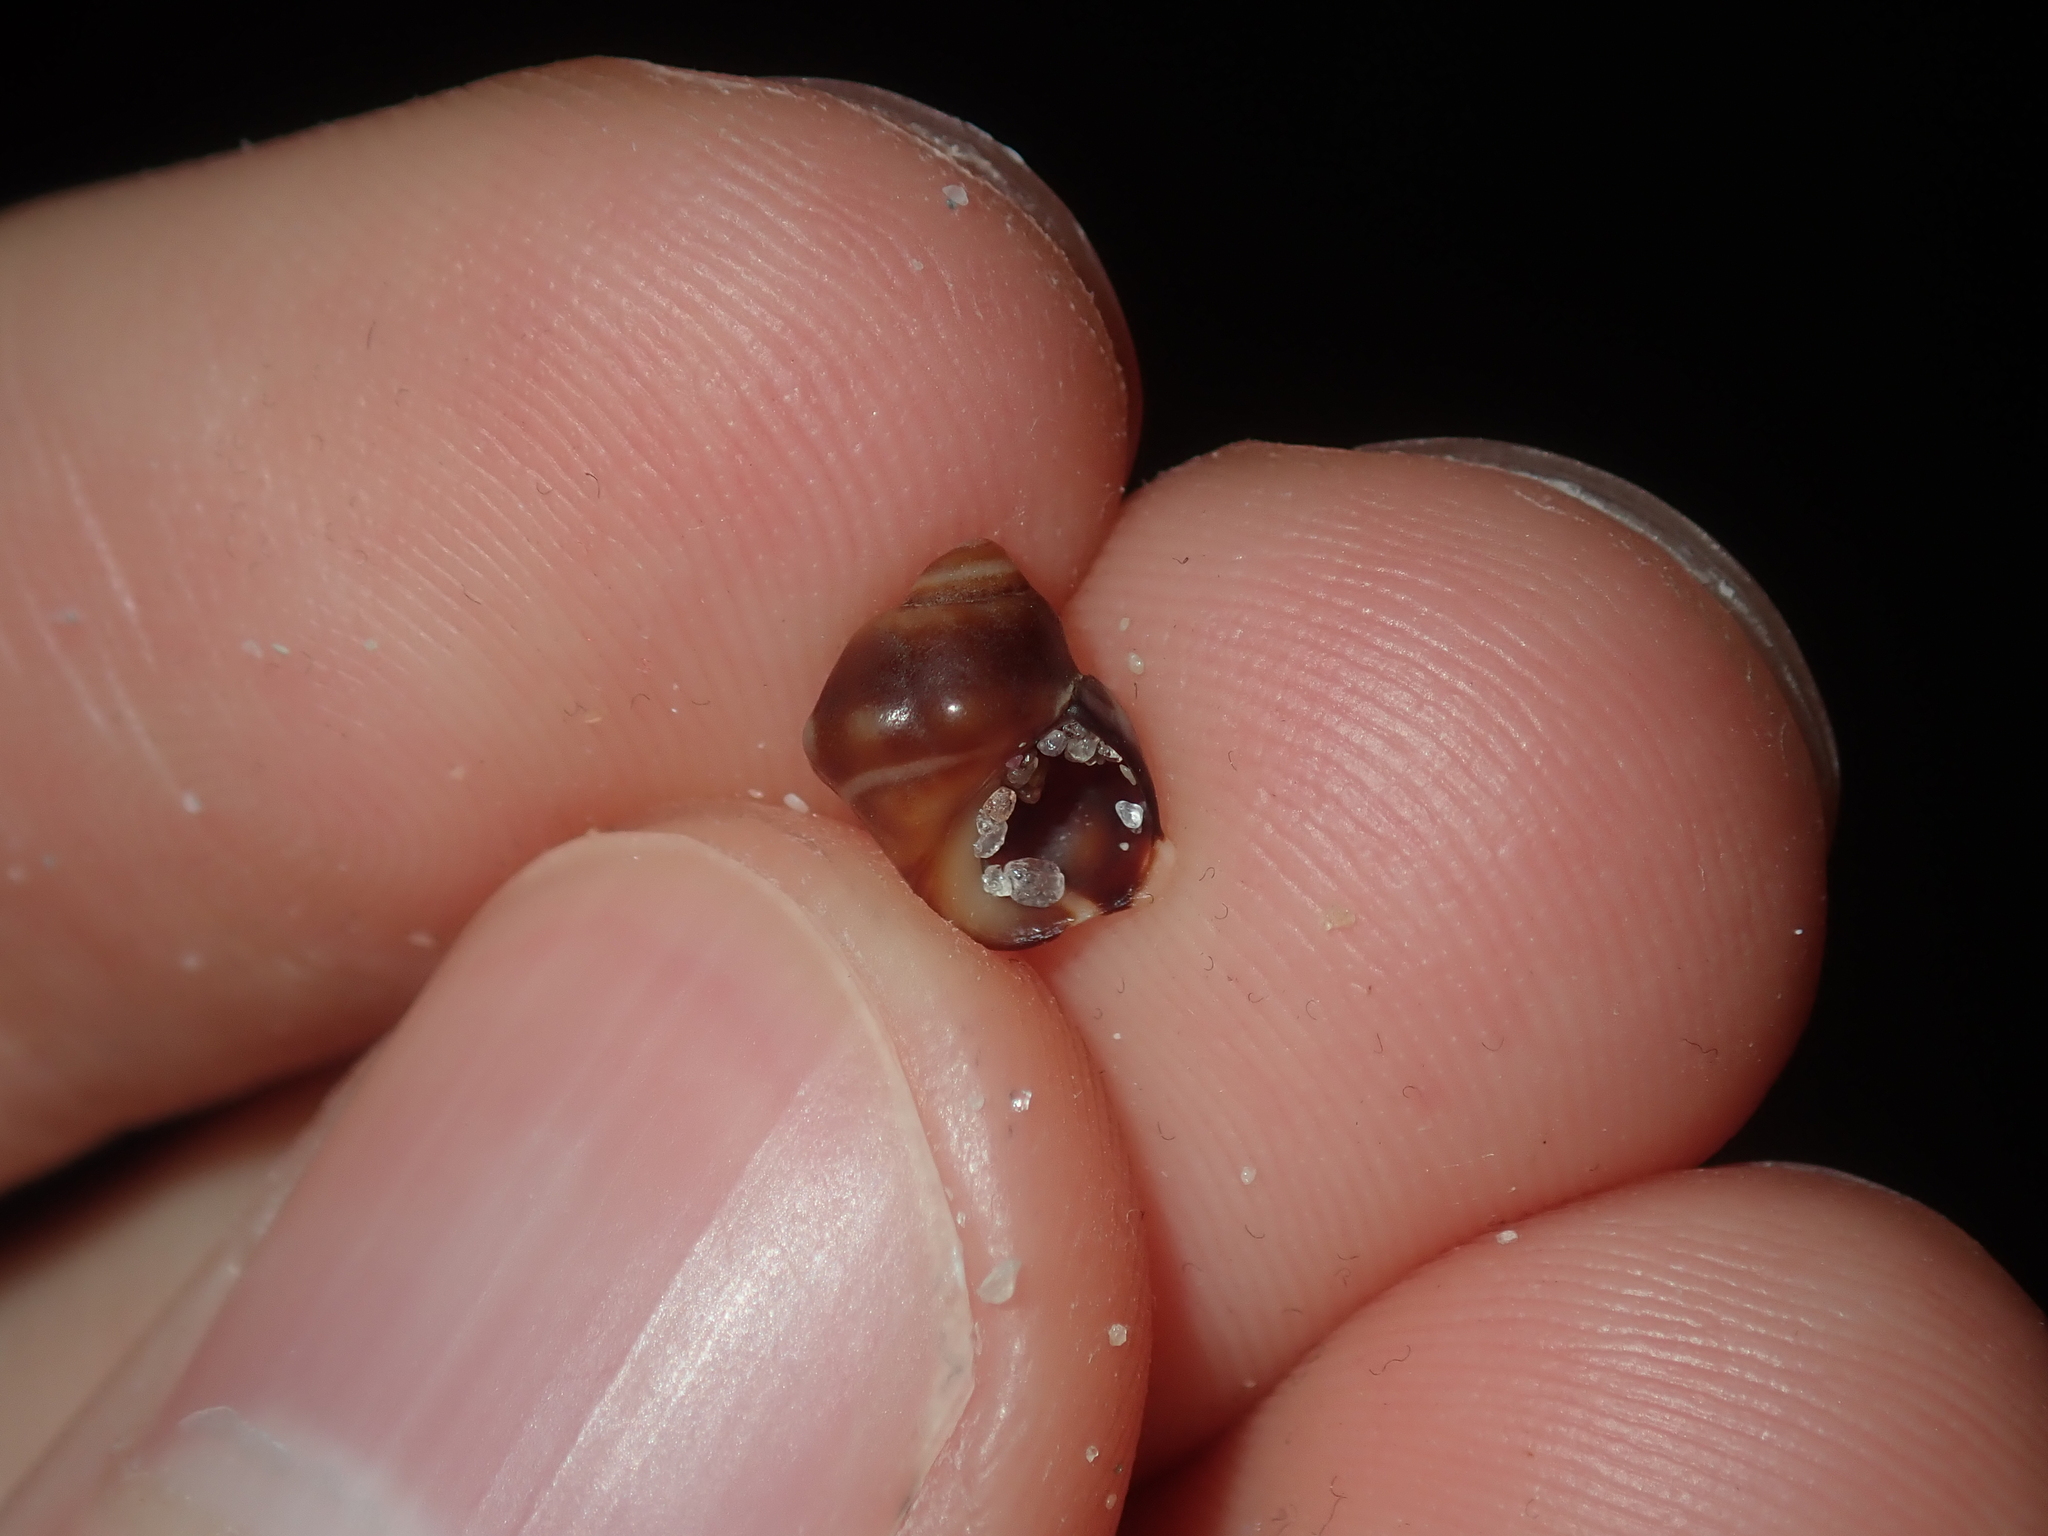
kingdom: Animalia
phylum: Mollusca
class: Gastropoda
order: Littorinimorpha
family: Littorinidae
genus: Echinolittorina
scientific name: Echinolittorina australis
